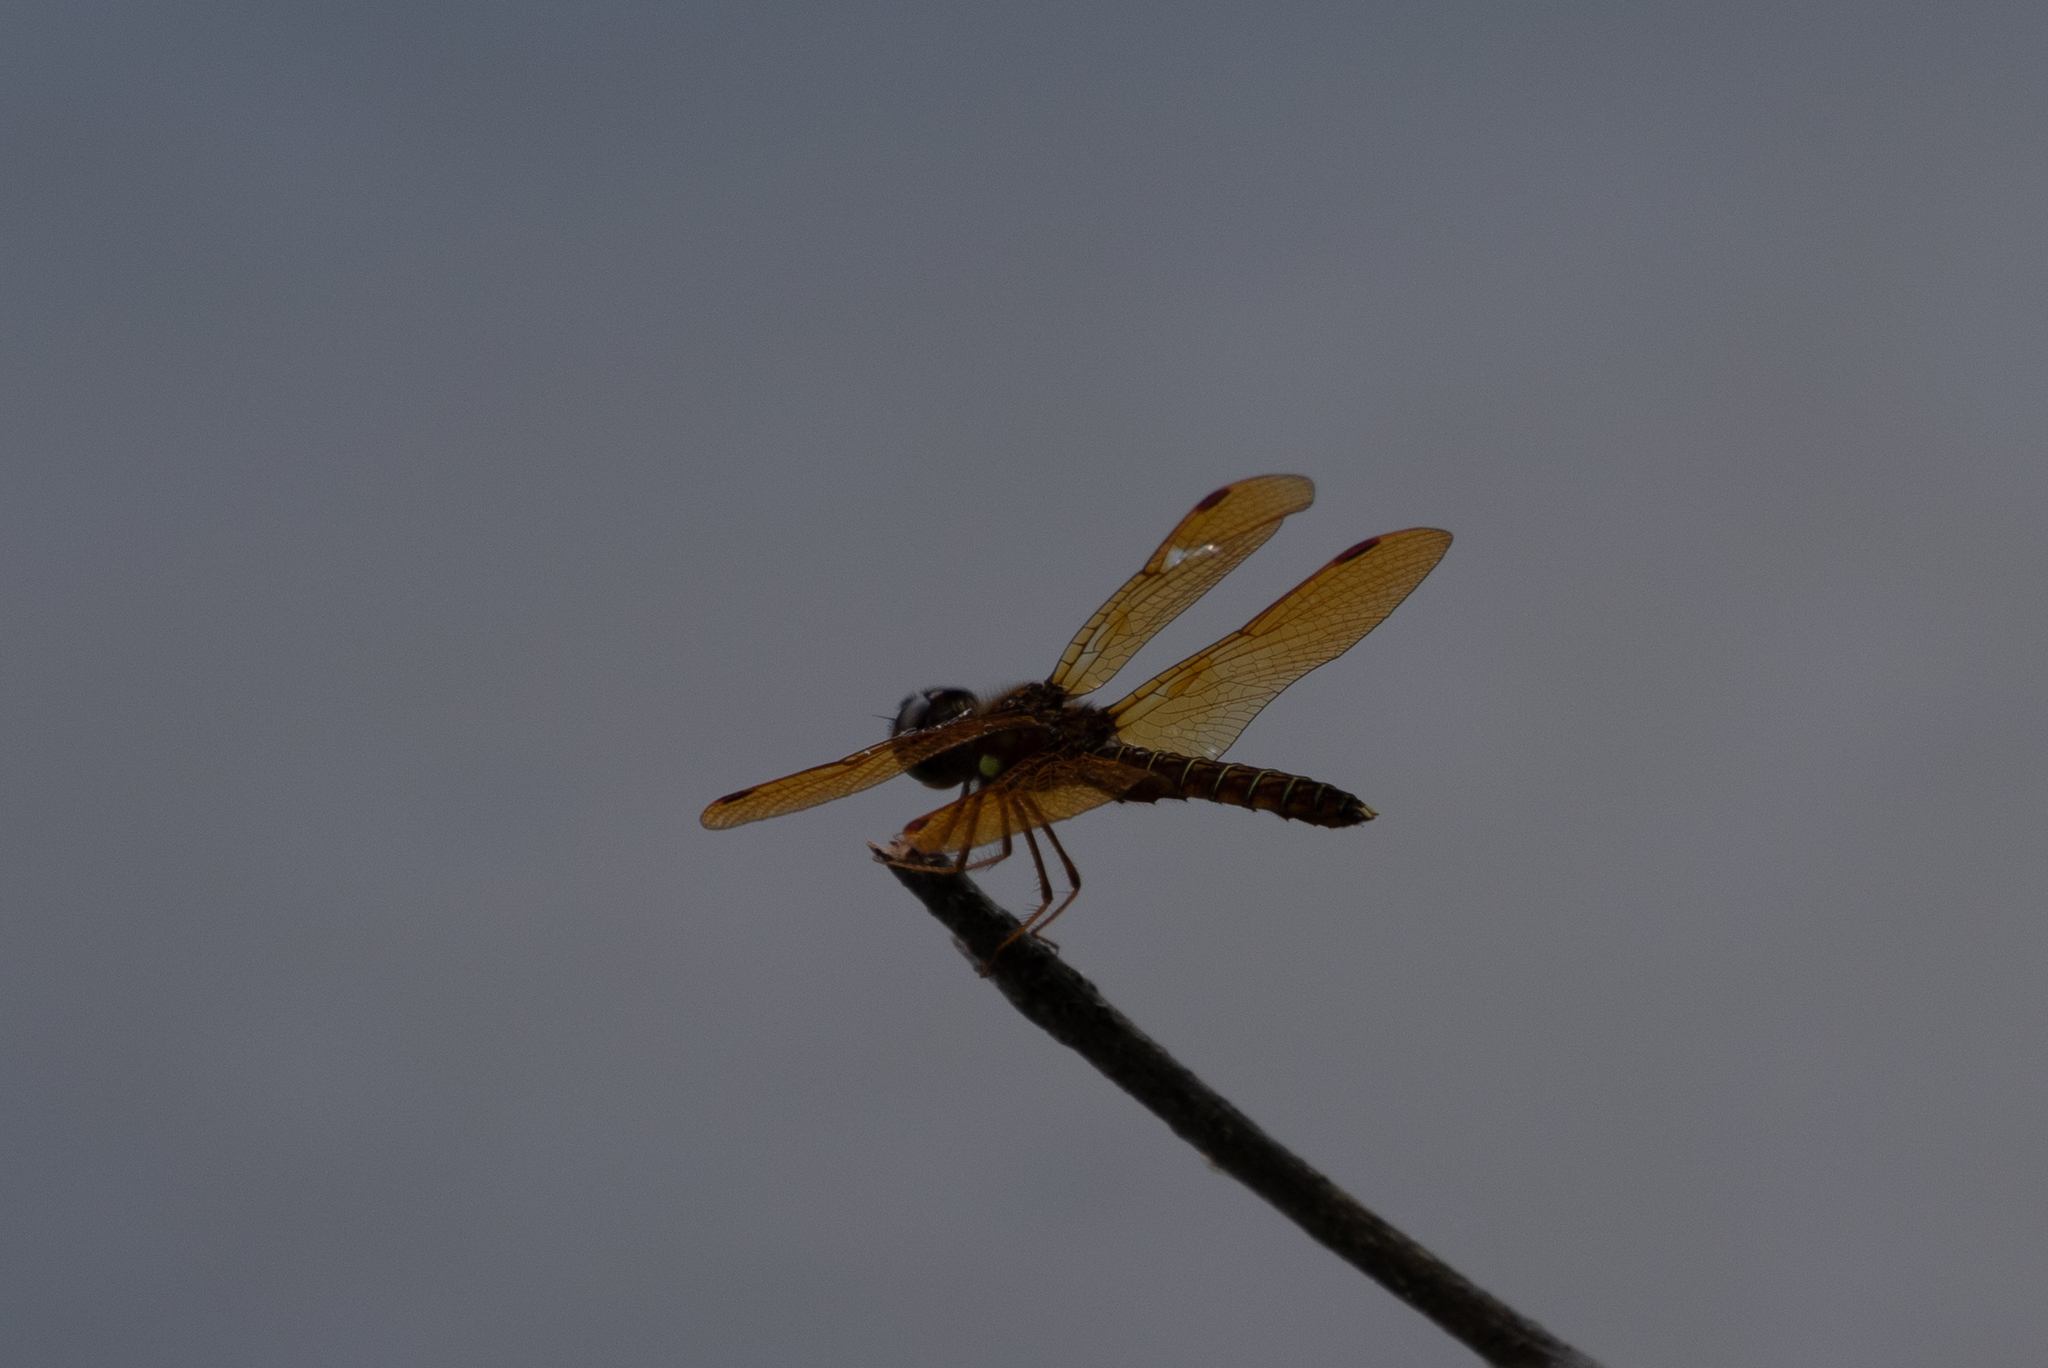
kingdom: Animalia
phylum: Arthropoda
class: Insecta
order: Odonata
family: Libellulidae
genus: Perithemis
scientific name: Perithemis tenera
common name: Eastern amberwing
